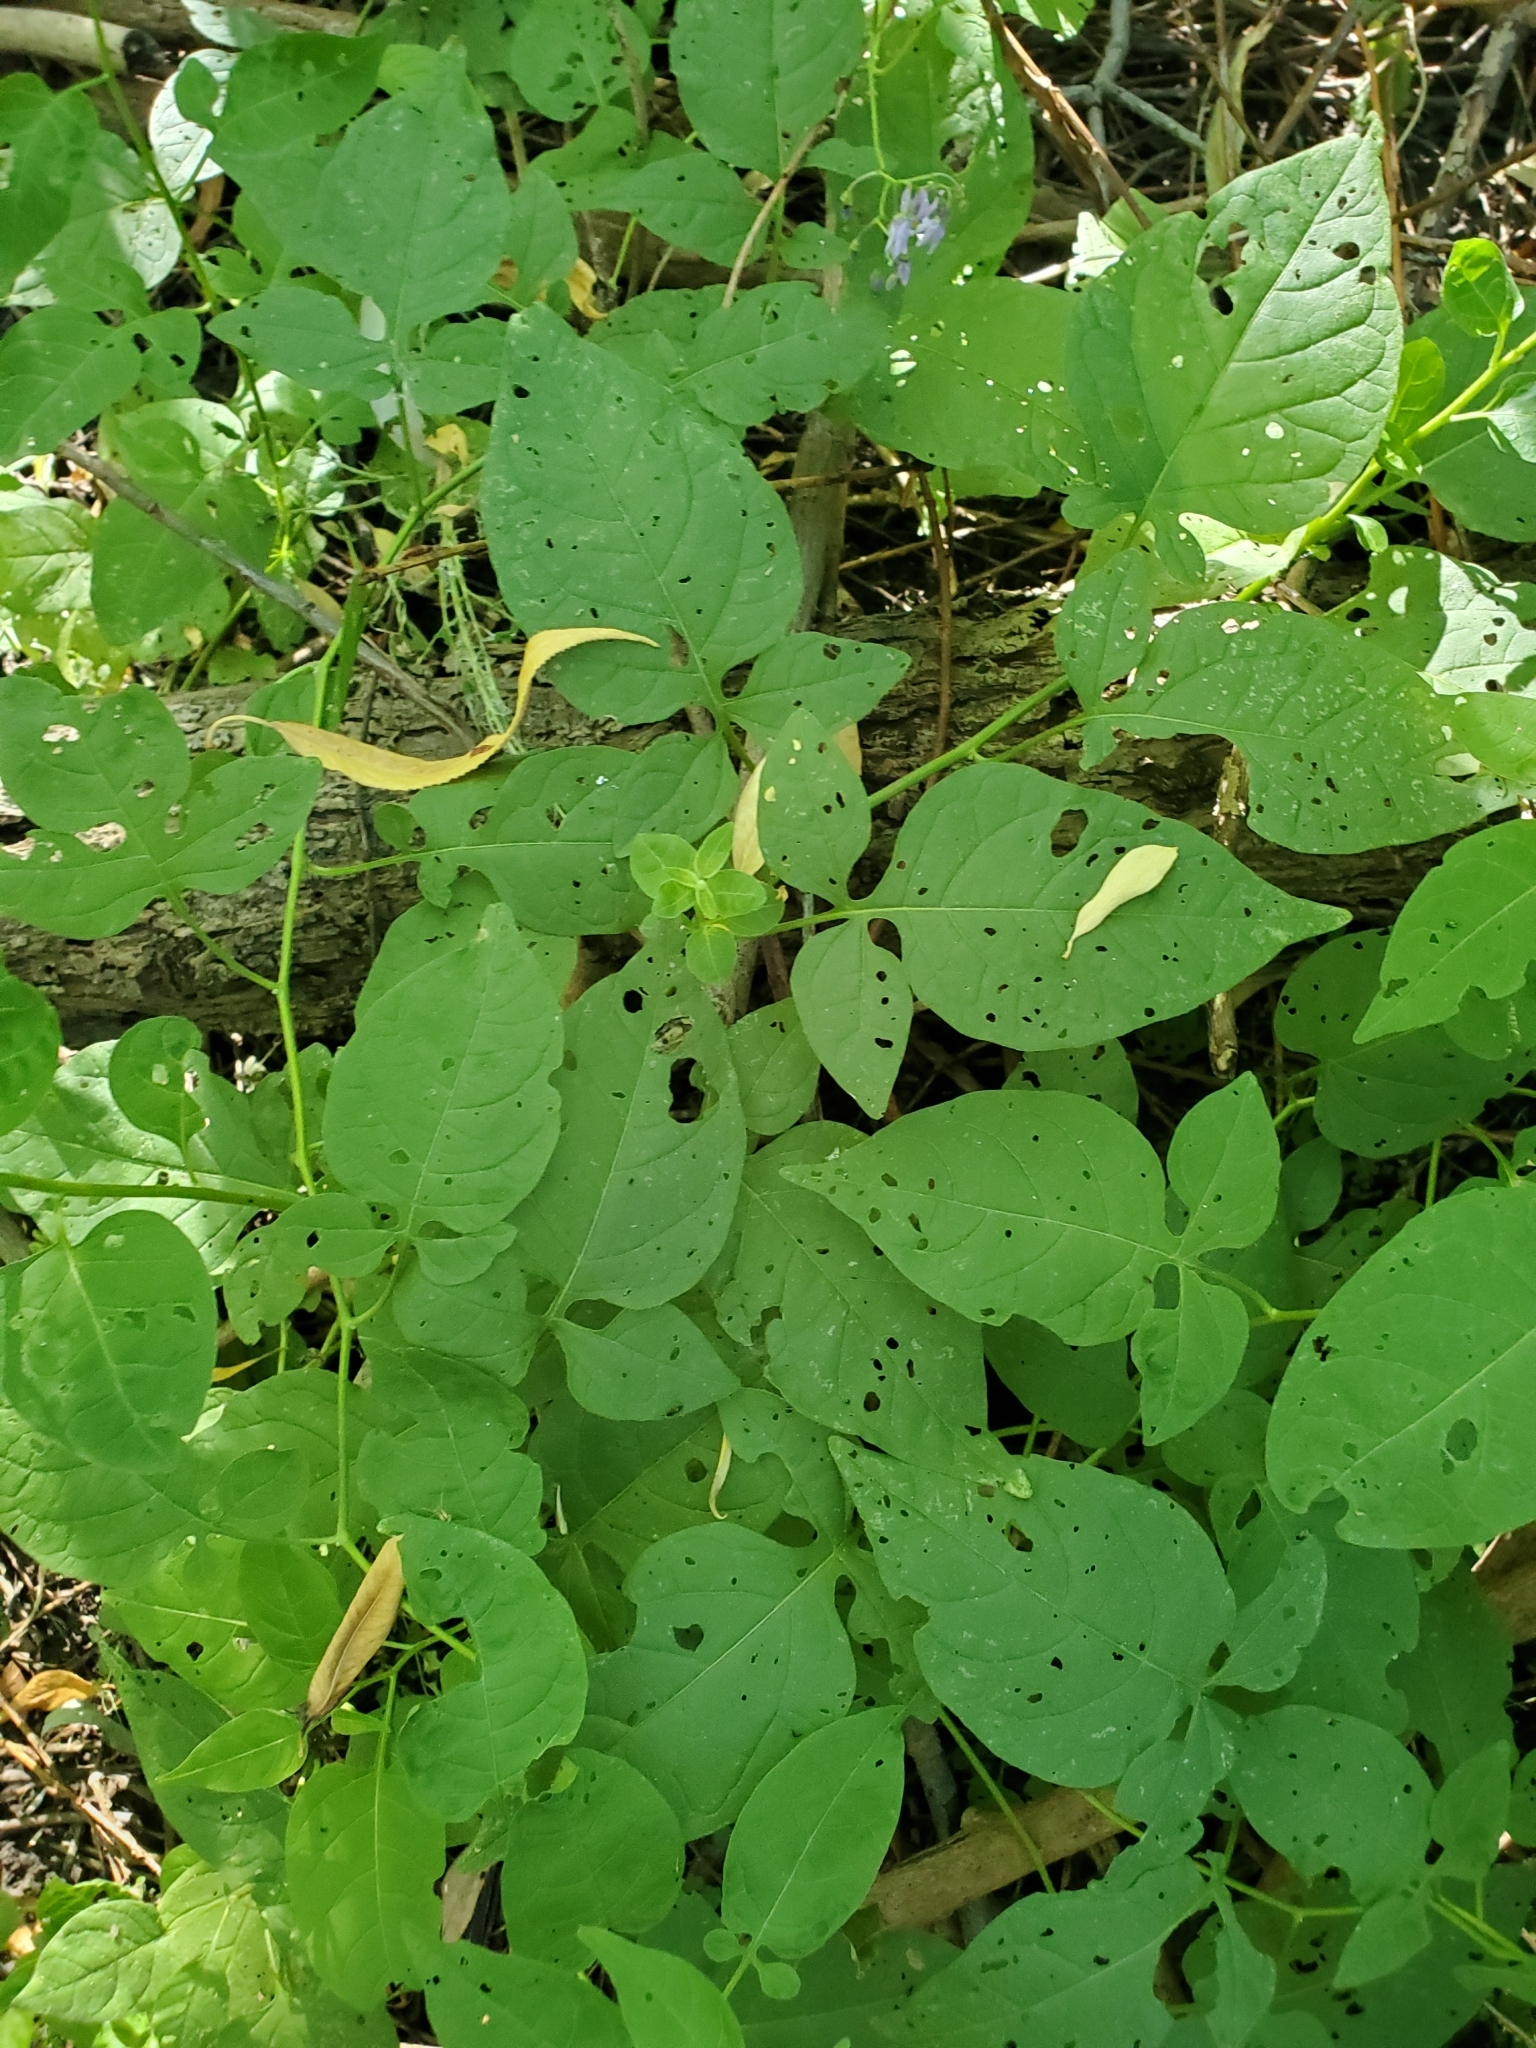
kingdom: Plantae
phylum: Tracheophyta
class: Magnoliopsida
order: Solanales
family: Solanaceae
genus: Solanum
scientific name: Solanum dulcamara
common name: Climbing nightshade
